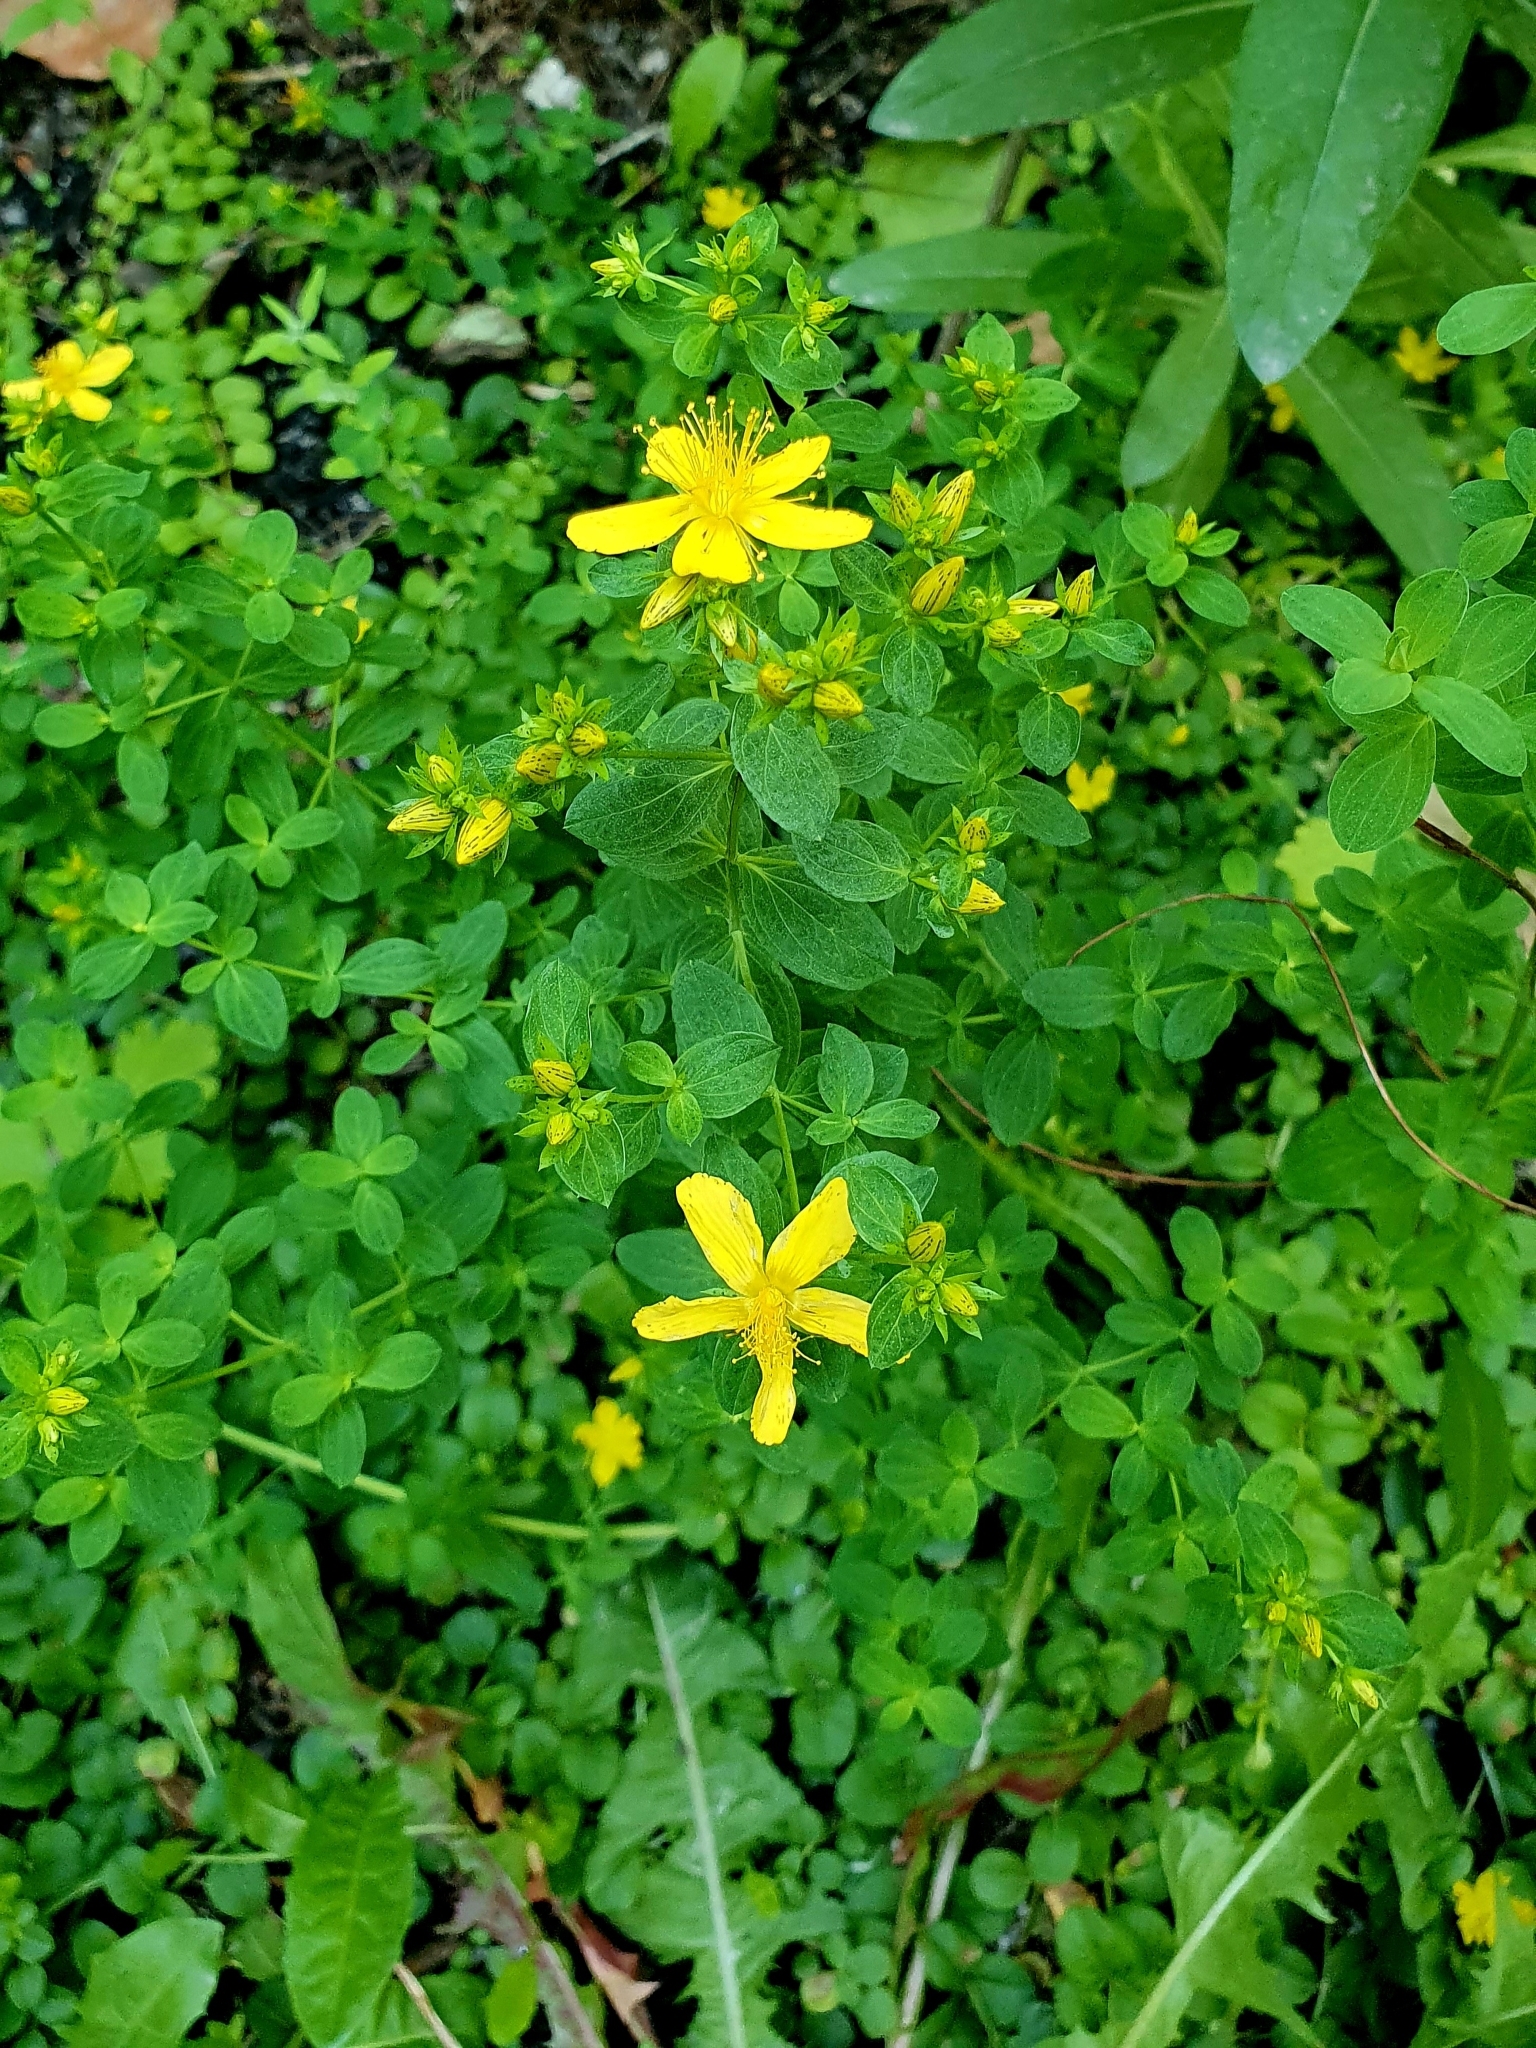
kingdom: Plantae
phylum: Tracheophyta
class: Magnoliopsida
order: Malpighiales
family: Hypericaceae
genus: Hypericum
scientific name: Hypericum perforatum
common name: Common st. johnswort
